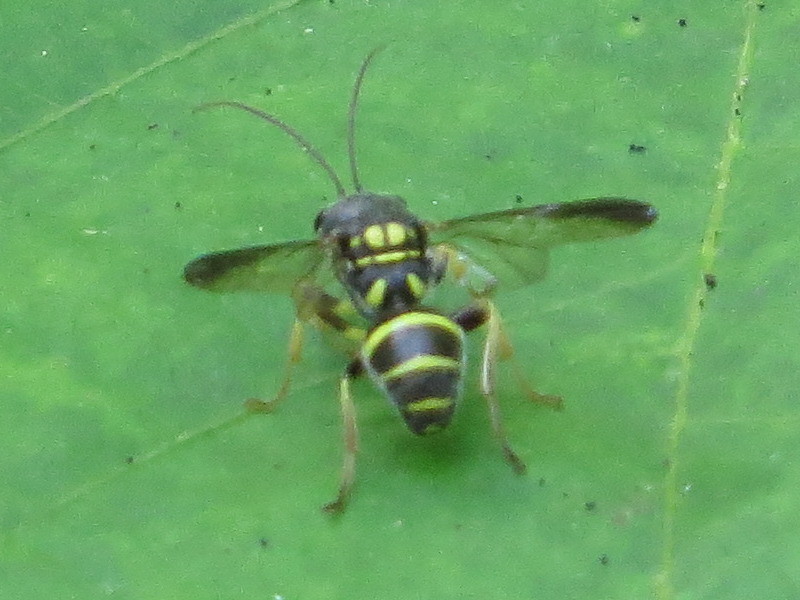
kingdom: Animalia
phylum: Arthropoda
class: Insecta
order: Hymenoptera
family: Trigonalidae
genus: Taeniogonalos
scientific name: Taeniogonalos gundlachii
